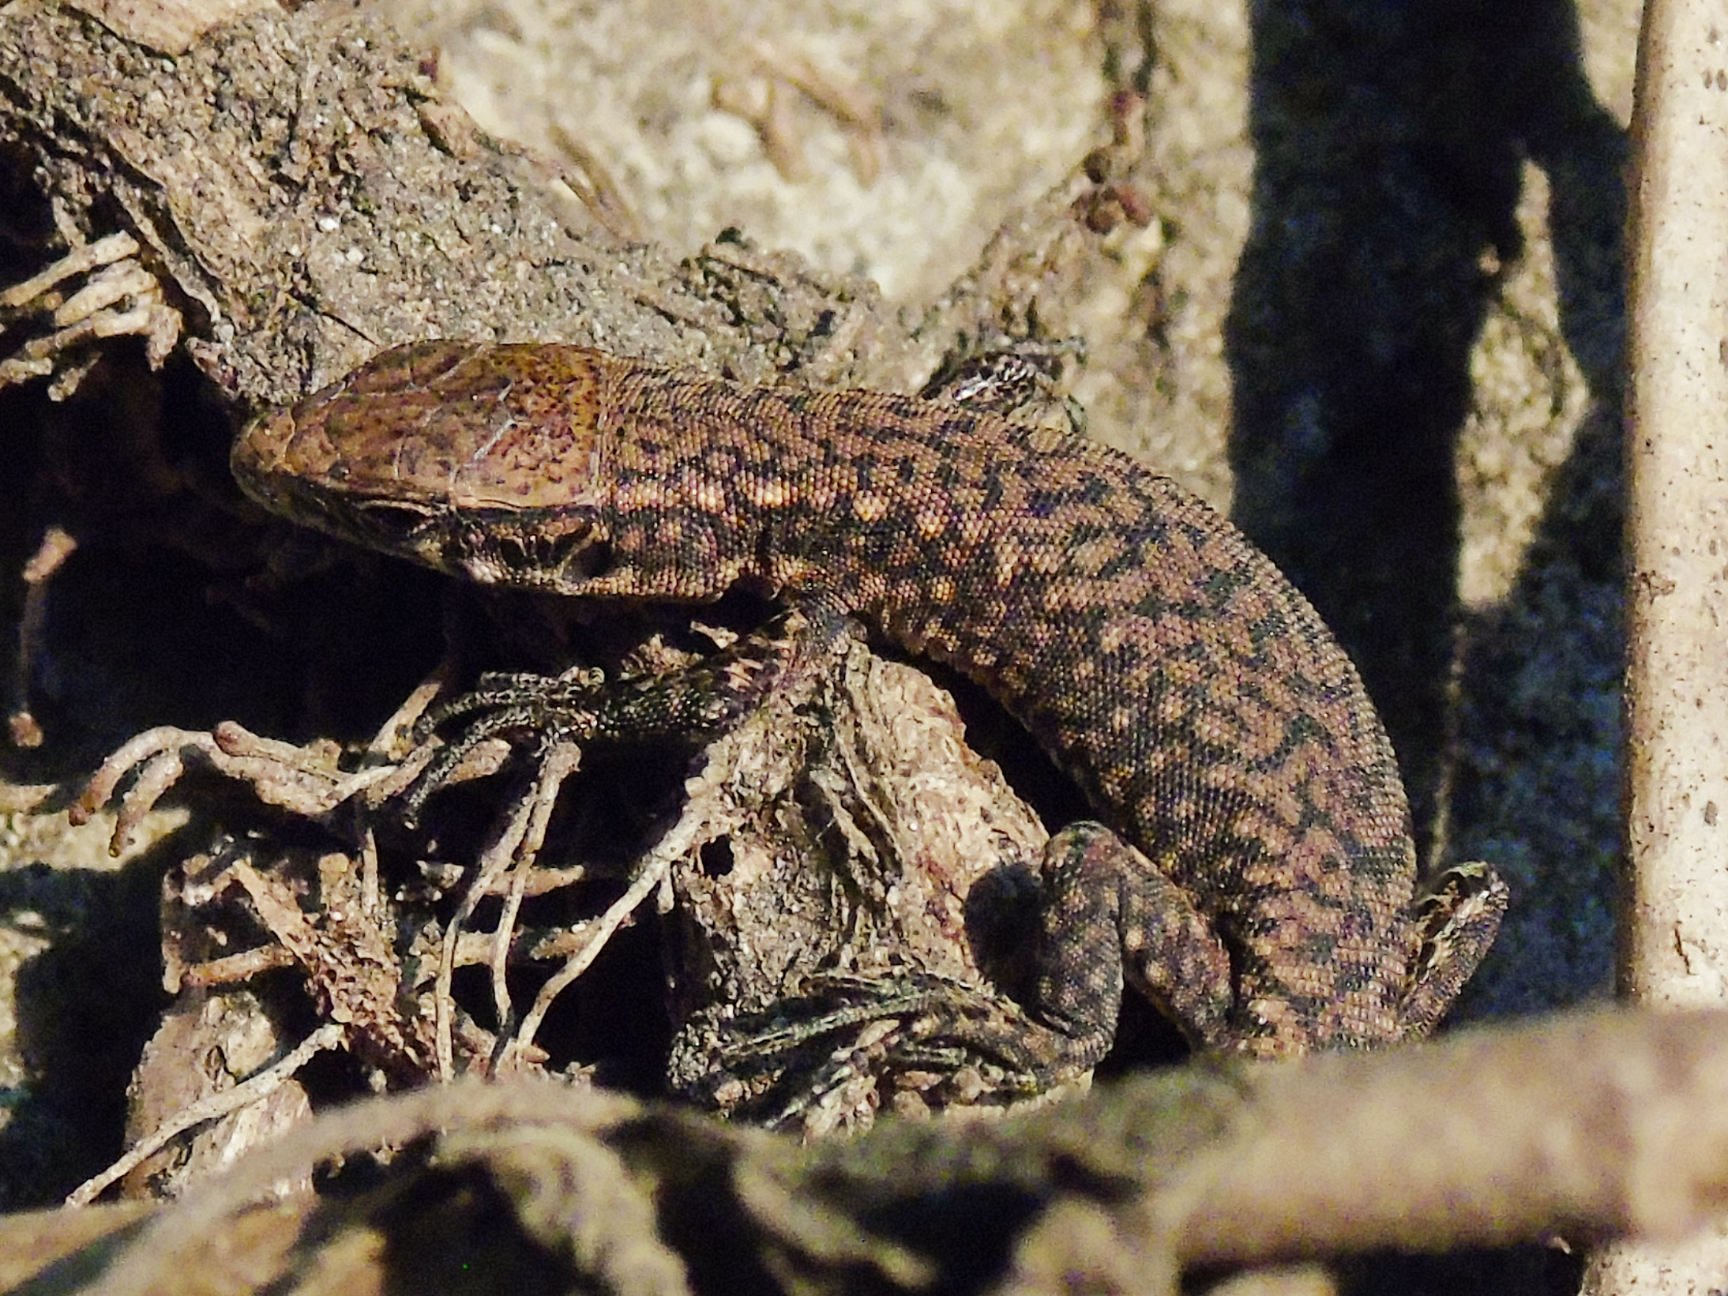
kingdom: Animalia
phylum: Chordata
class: Squamata
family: Lacertidae
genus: Darevskia
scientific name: Darevskia rudis
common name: Spiny-tailed lizard
